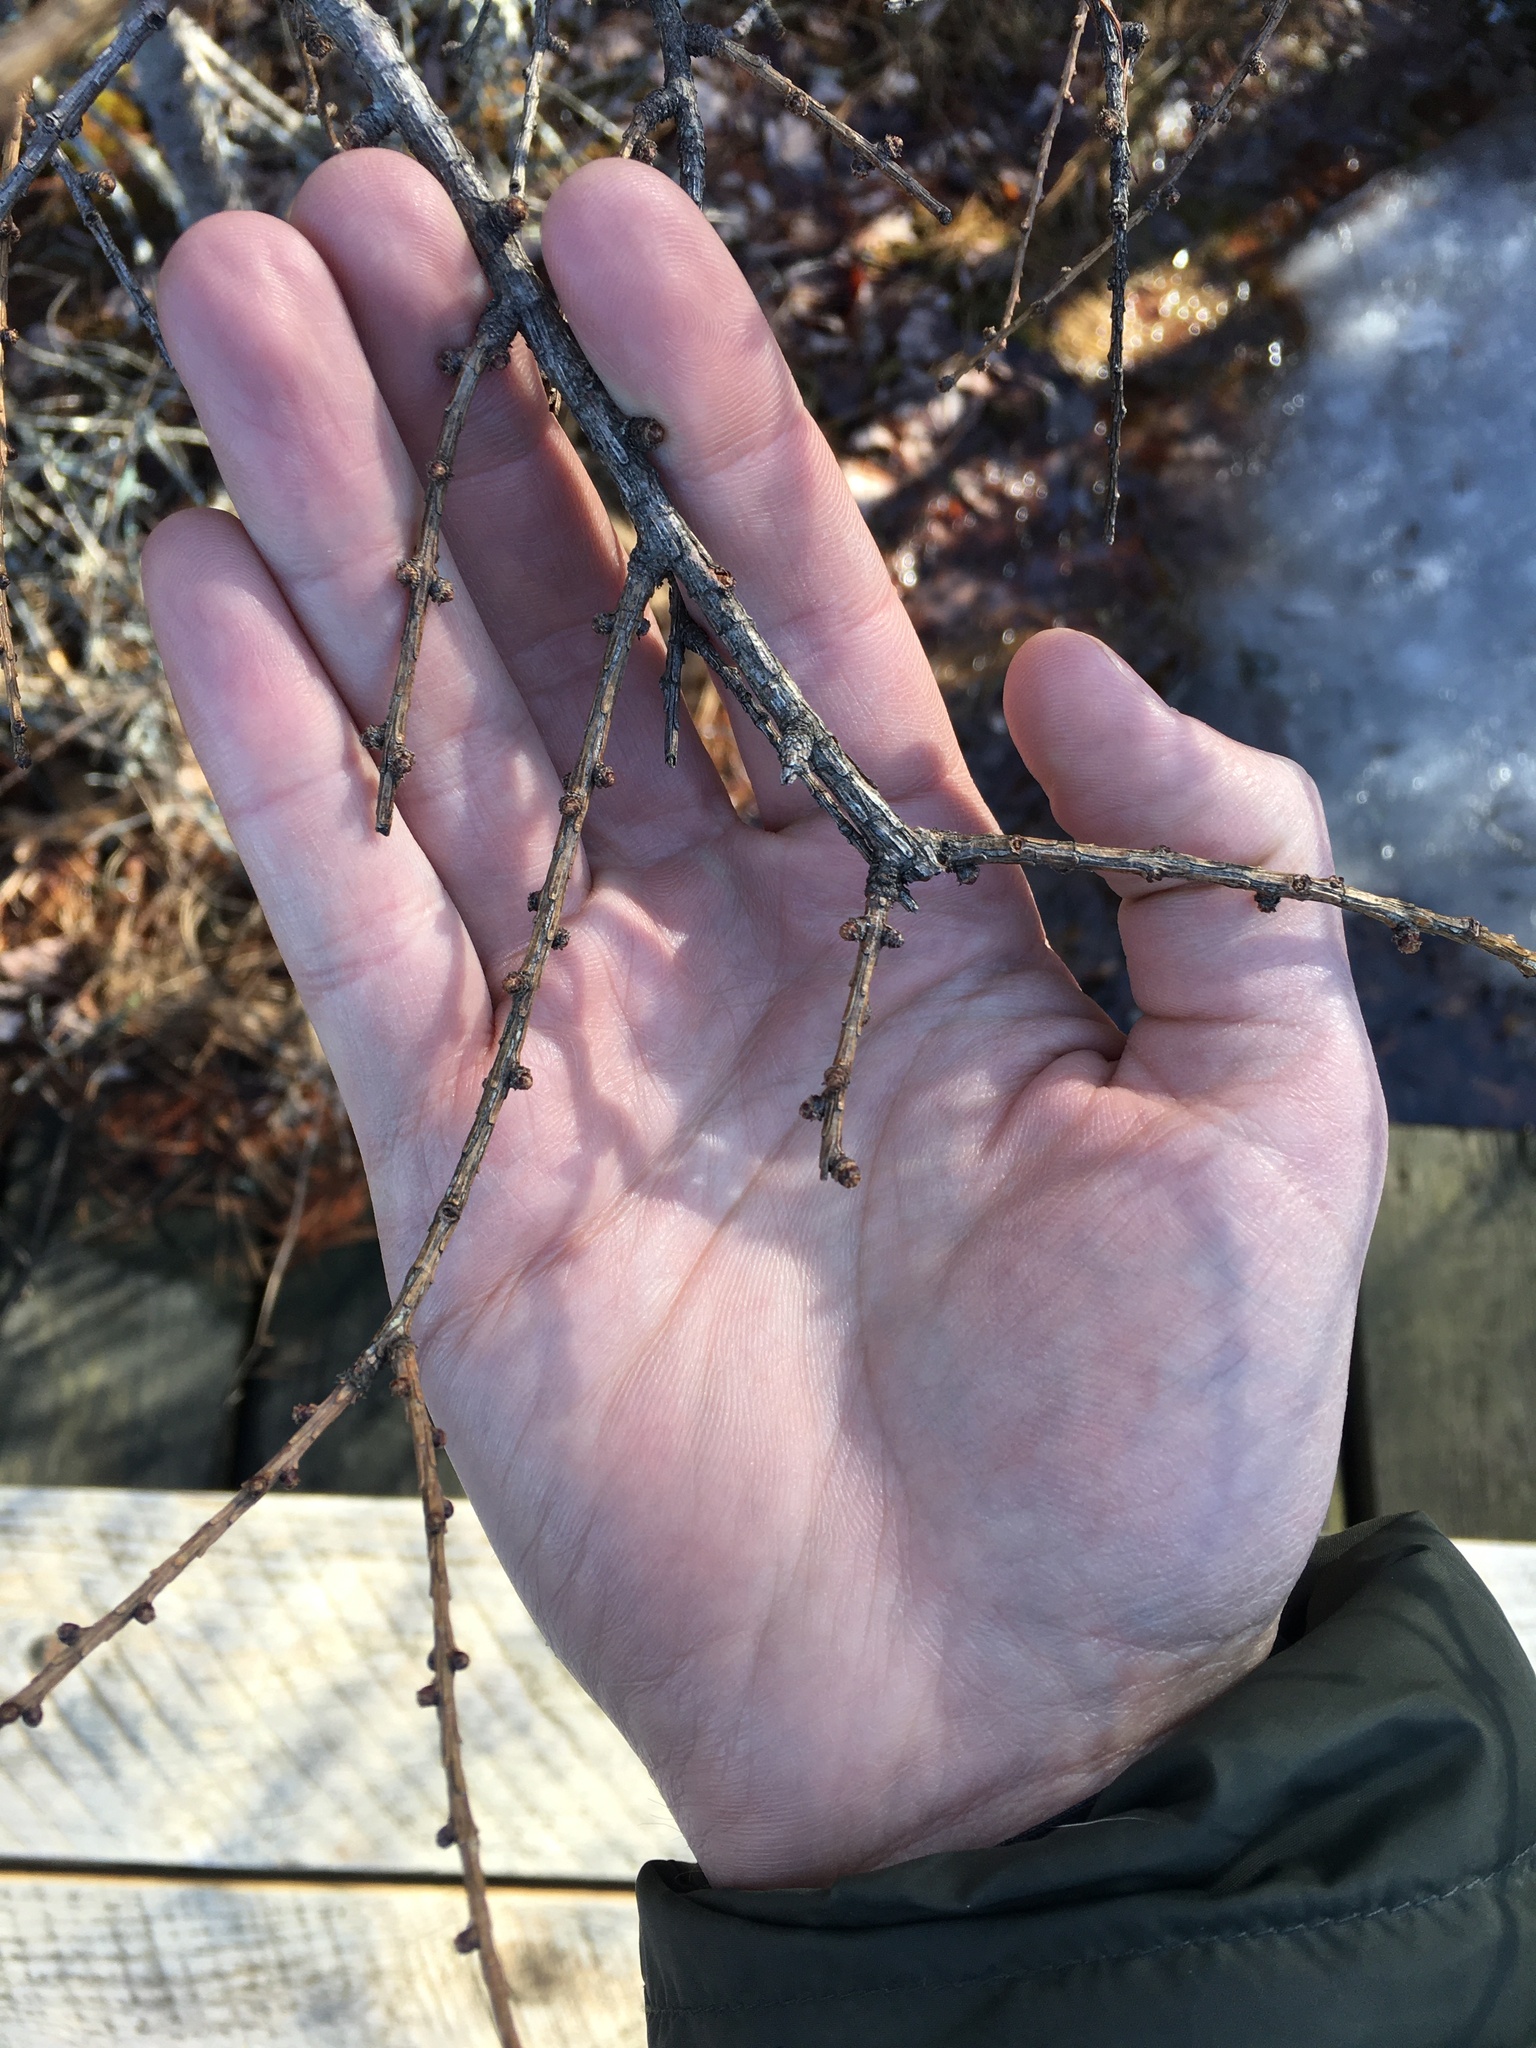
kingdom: Plantae
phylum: Tracheophyta
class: Pinopsida
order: Pinales
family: Pinaceae
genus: Larix
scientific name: Larix laricina
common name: American larch
